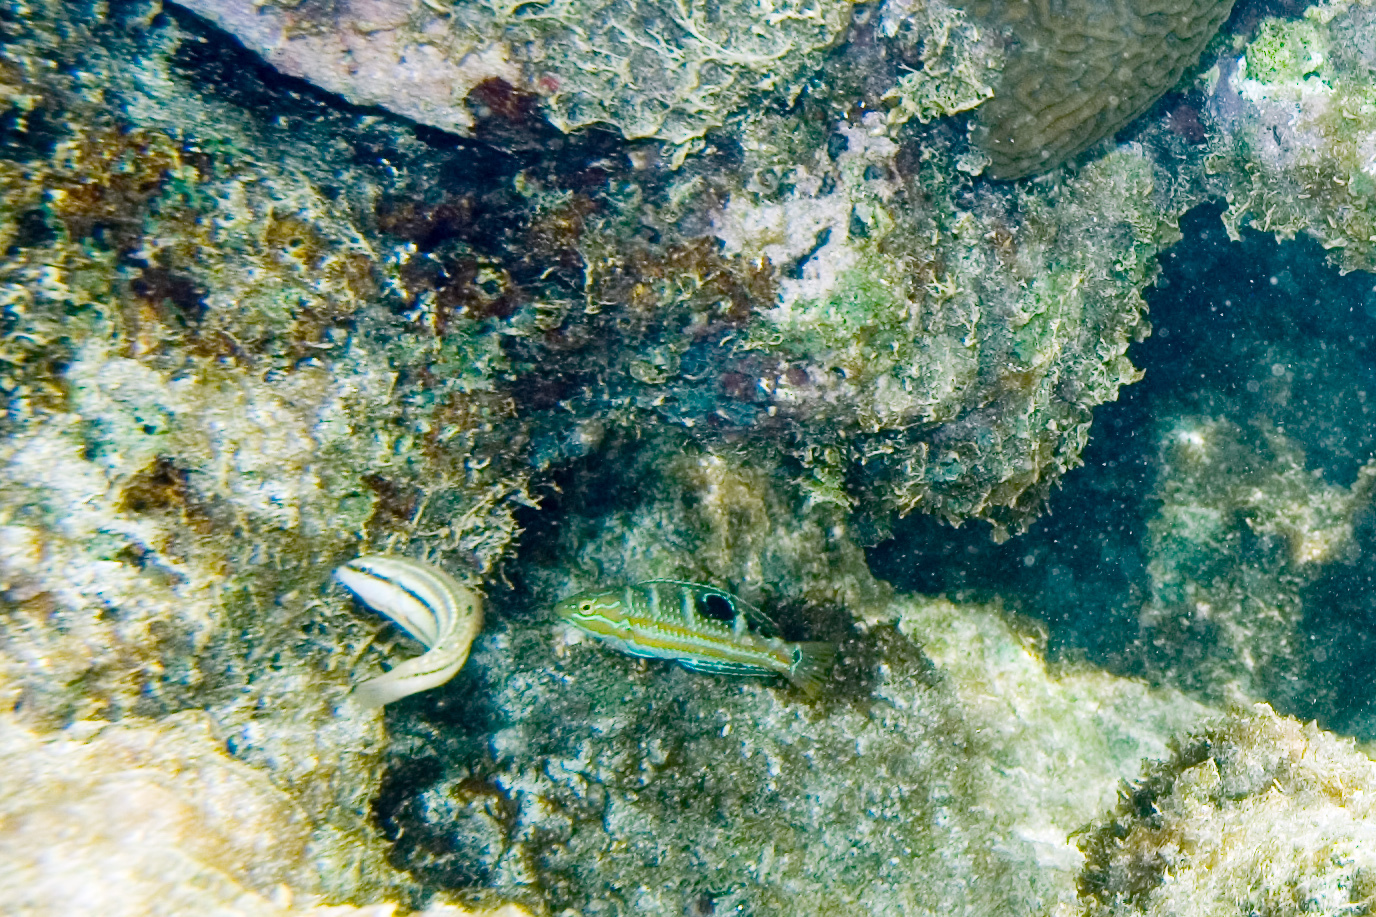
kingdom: Animalia
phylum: Chordata
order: Perciformes
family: Labridae
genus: Halichoeres
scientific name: Halichoeres radiatus
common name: Puddingwife
